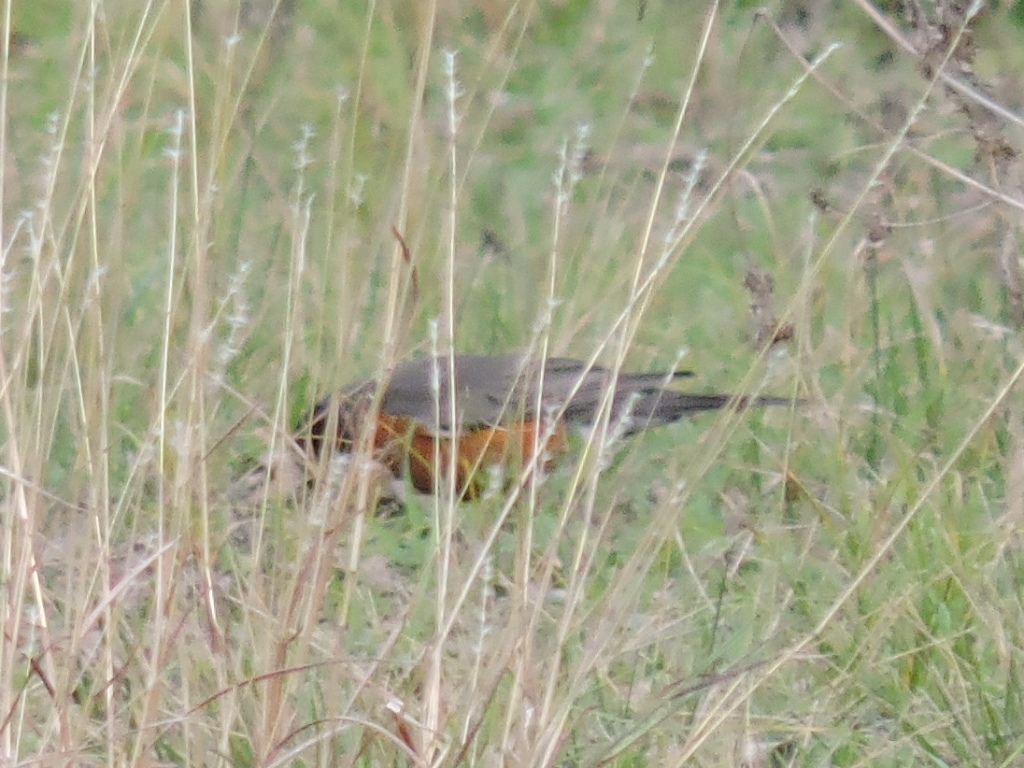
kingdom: Animalia
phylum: Chordata
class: Aves
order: Passeriformes
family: Turdidae
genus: Turdus
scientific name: Turdus migratorius
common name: American robin
